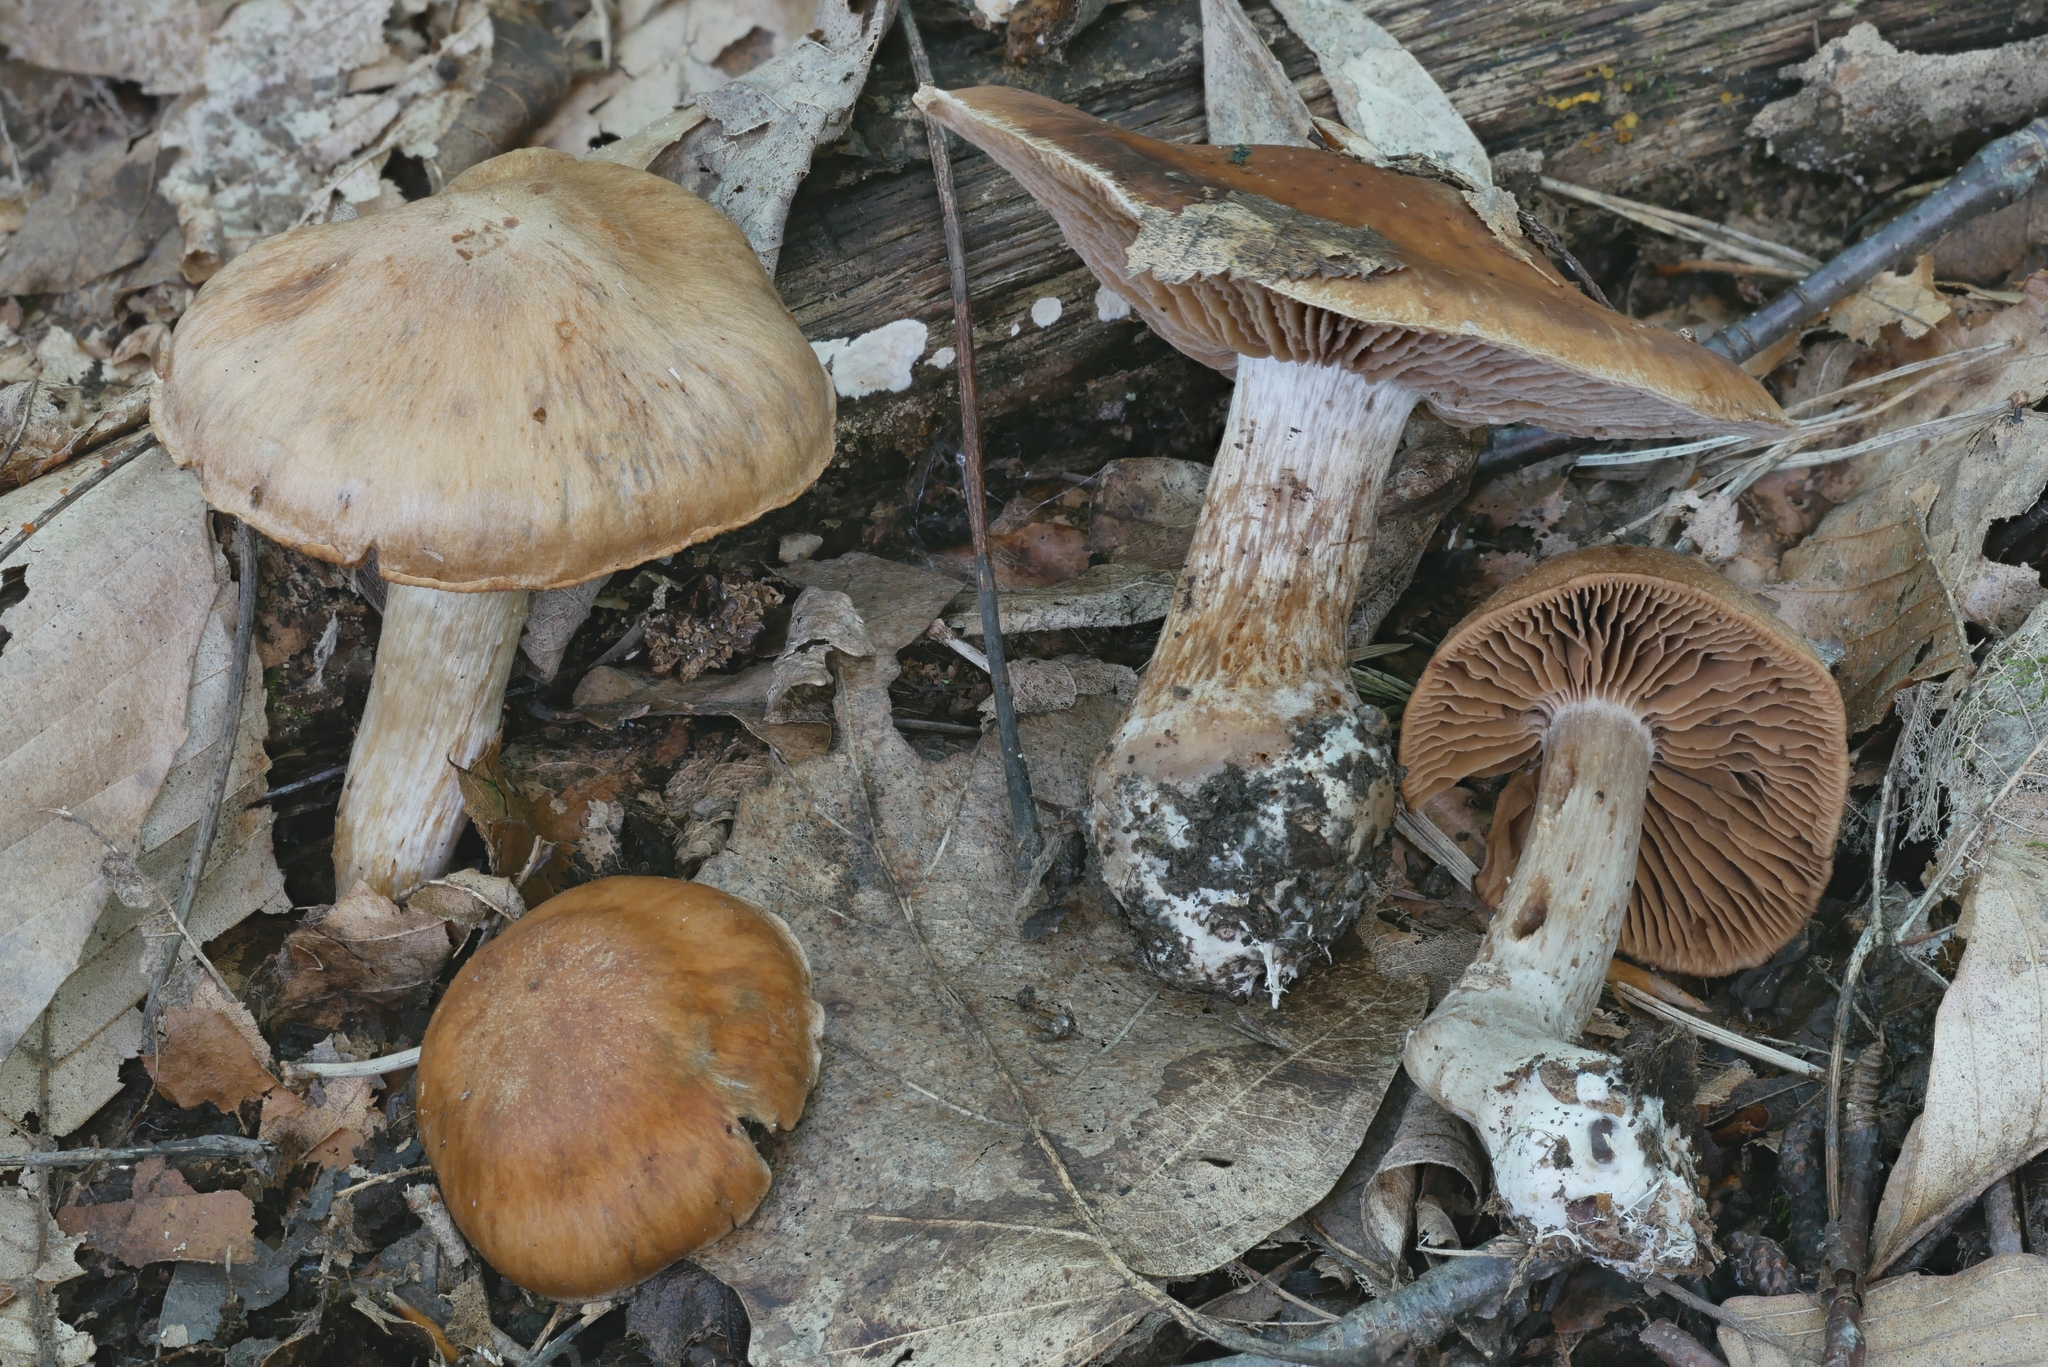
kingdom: Fungi
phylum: Basidiomycota
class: Agaricomycetes
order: Agaricales
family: Cortinariaceae
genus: Cortinarius
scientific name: Cortinarius malachius
